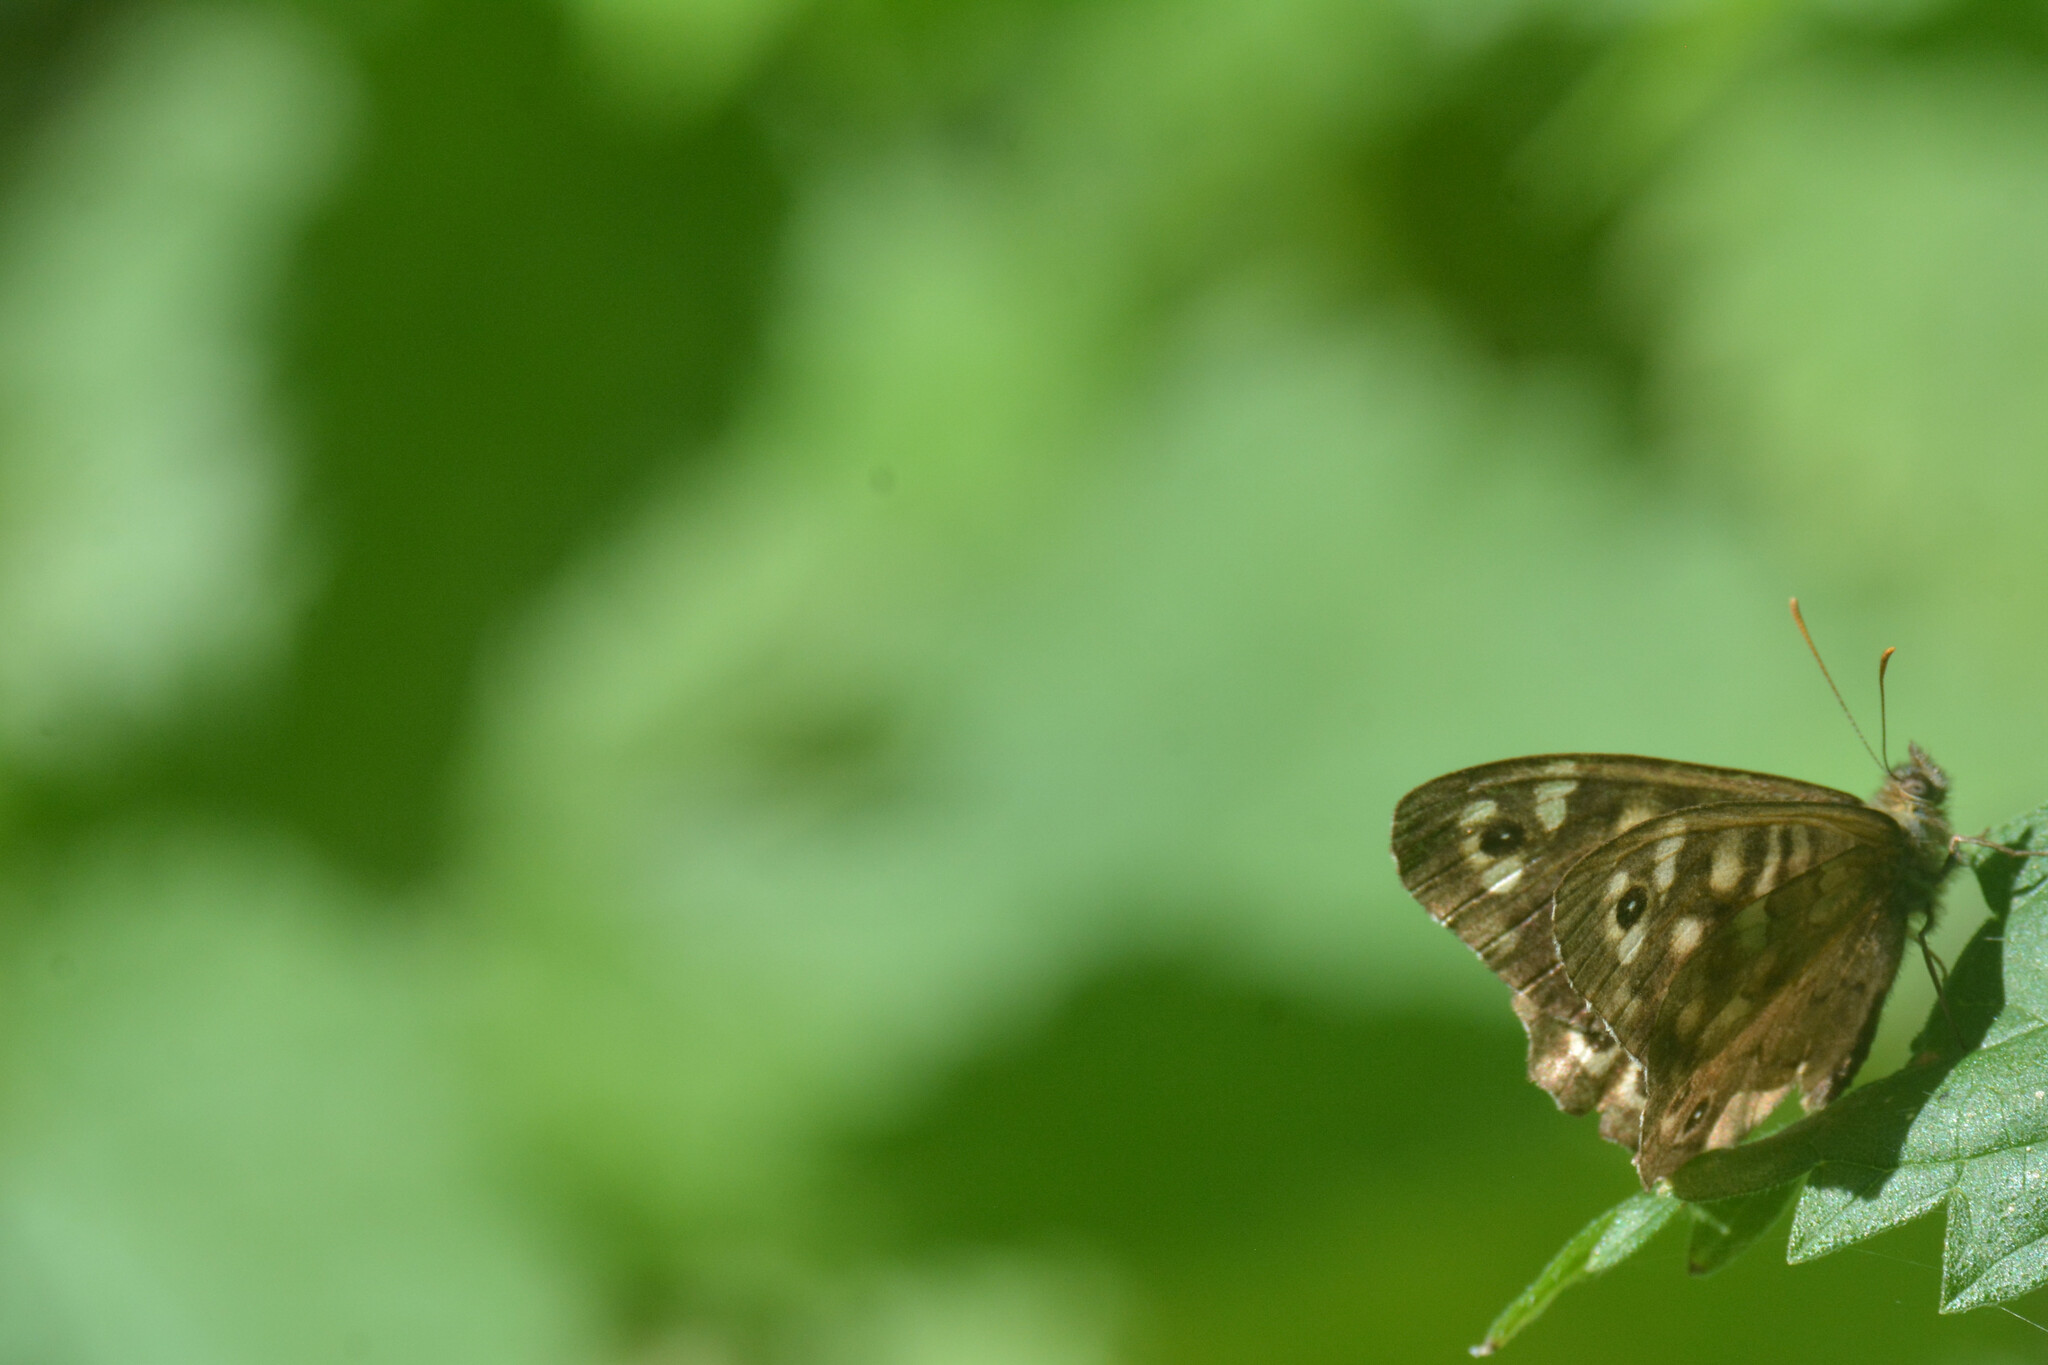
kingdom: Animalia
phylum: Arthropoda
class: Insecta
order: Lepidoptera
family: Nymphalidae
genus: Pararge
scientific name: Pararge aegeria
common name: Speckled wood
